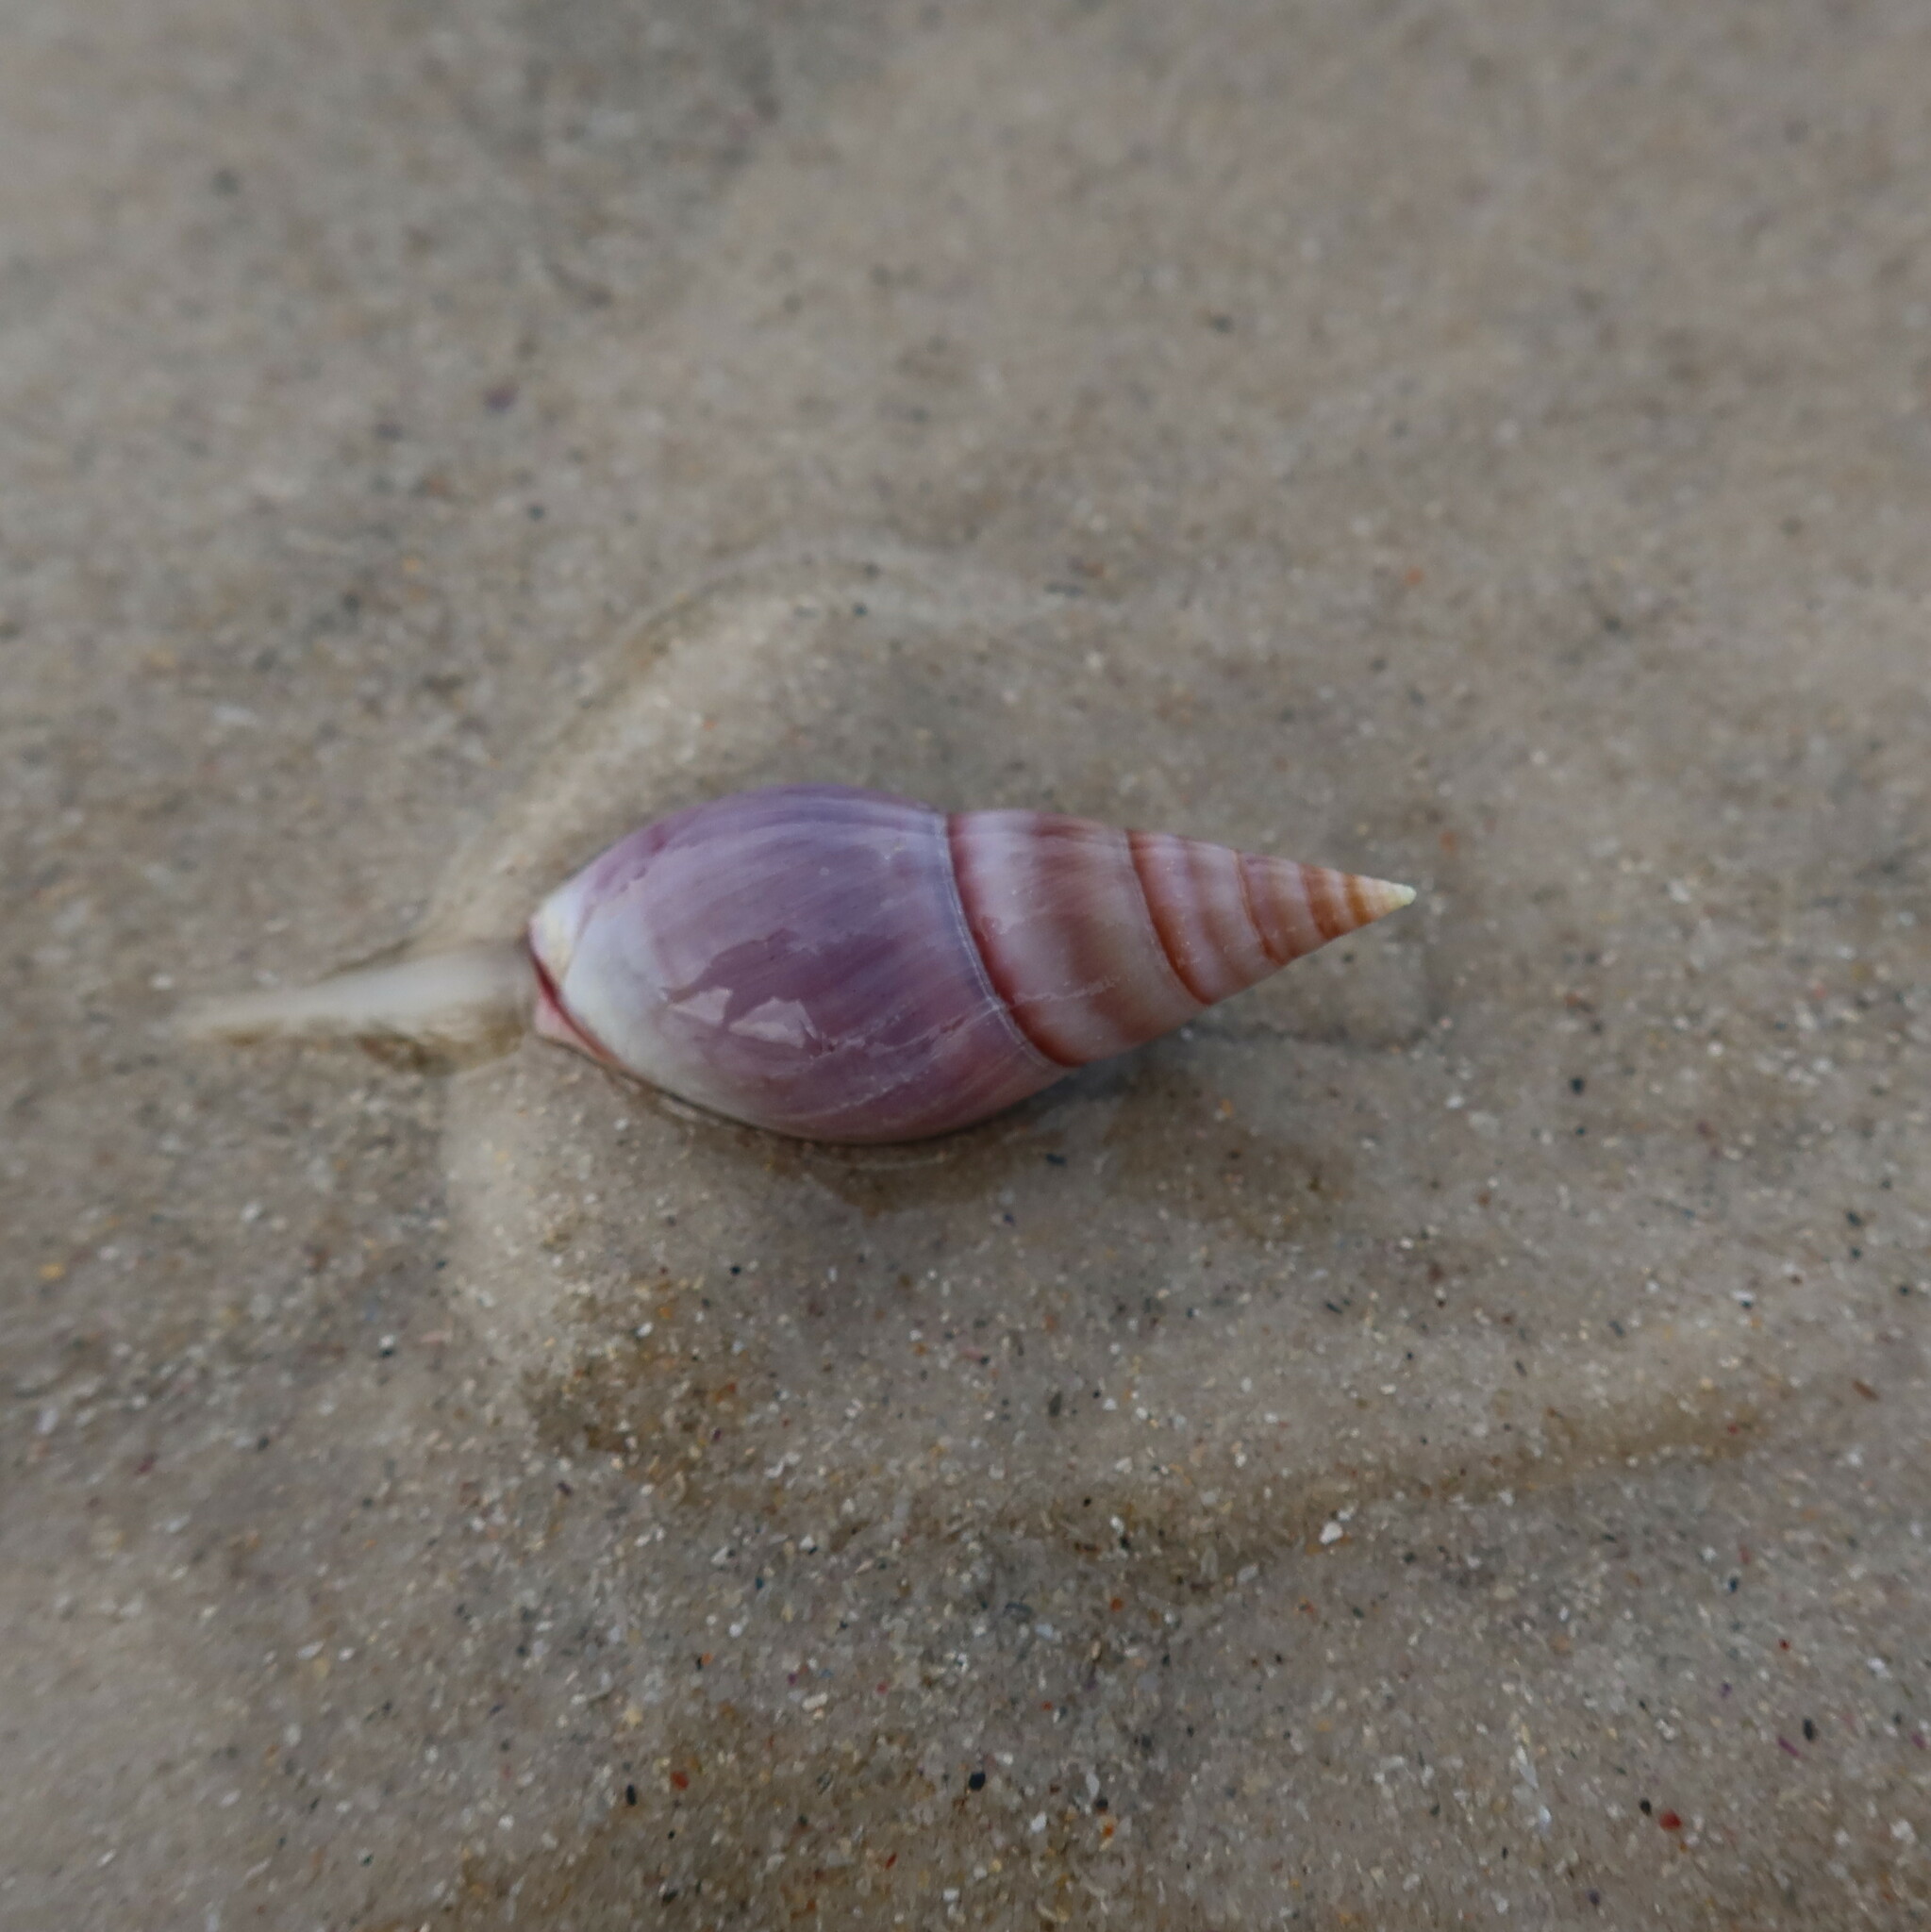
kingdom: Animalia
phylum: Mollusca
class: Gastropoda
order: Neogastropoda
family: Nassariidae
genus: Bullia
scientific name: Bullia rhodostoma
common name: Smooth plough shell
